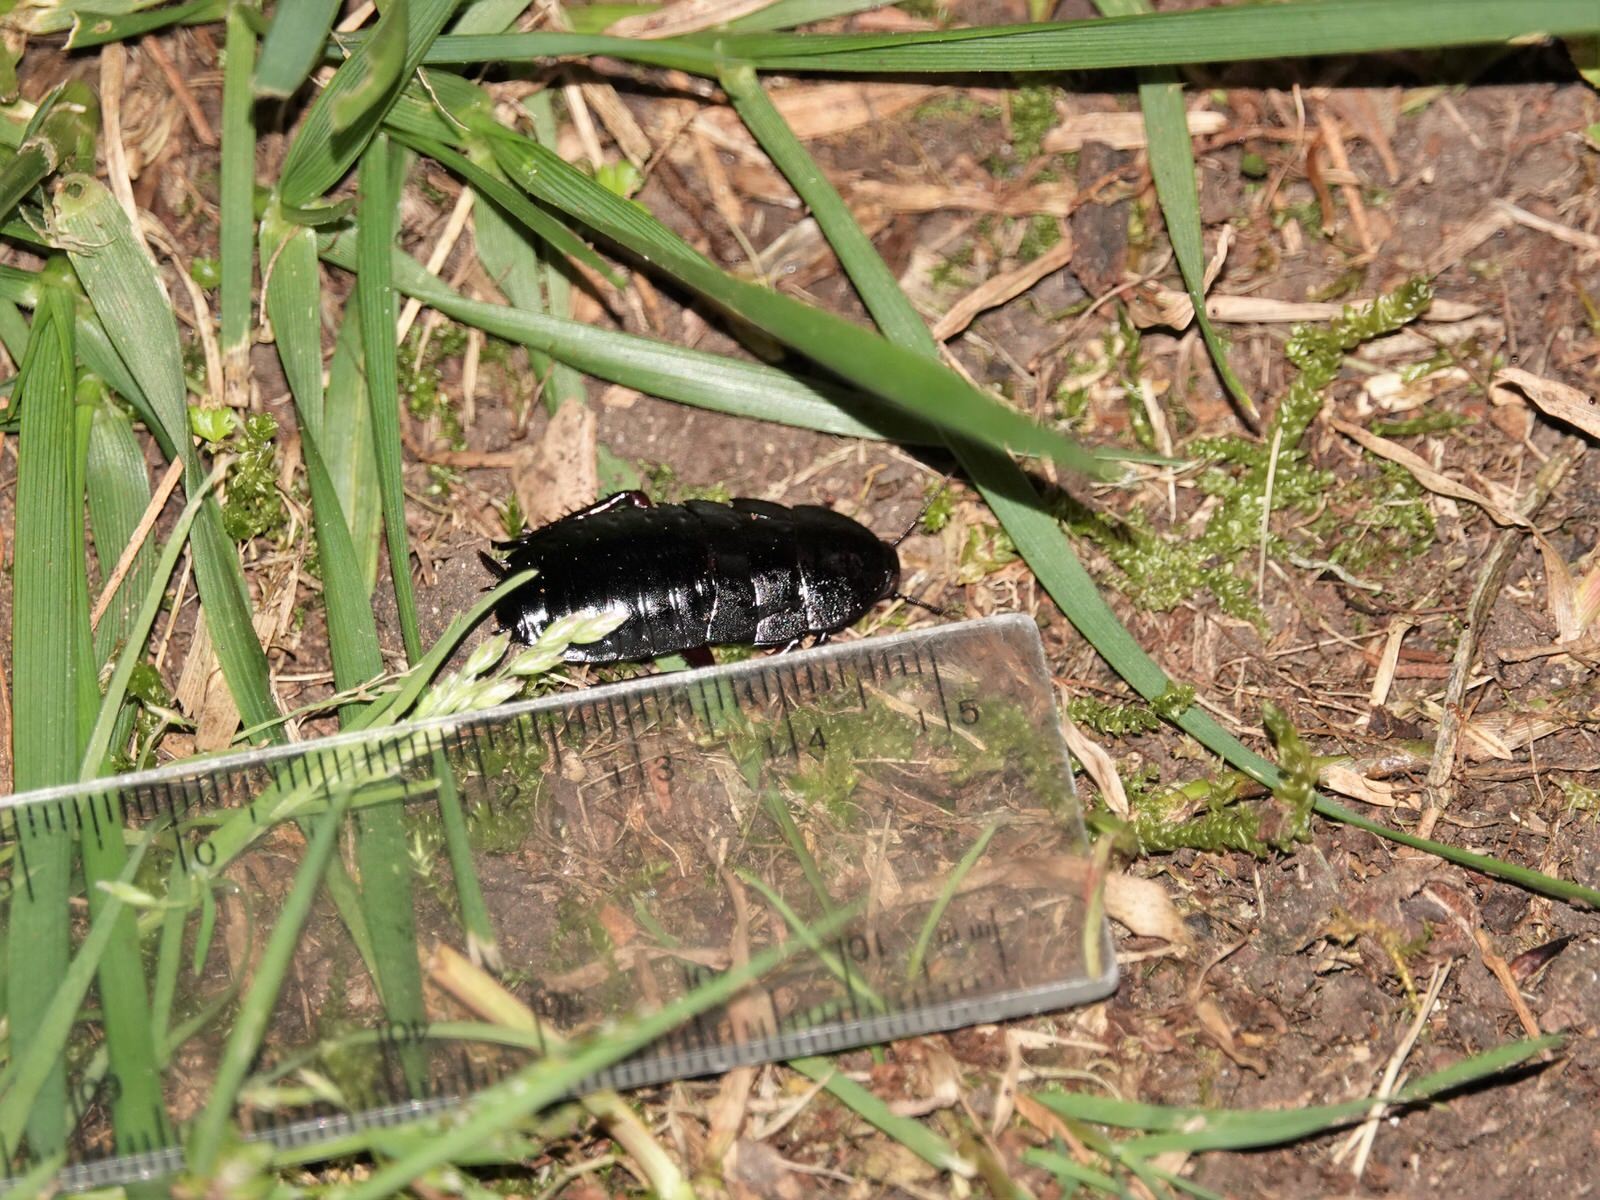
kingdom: Animalia
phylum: Arthropoda
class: Insecta
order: Blattodea
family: Blattidae
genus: Maoriblatta
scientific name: Maoriblatta novaeseelandiae
